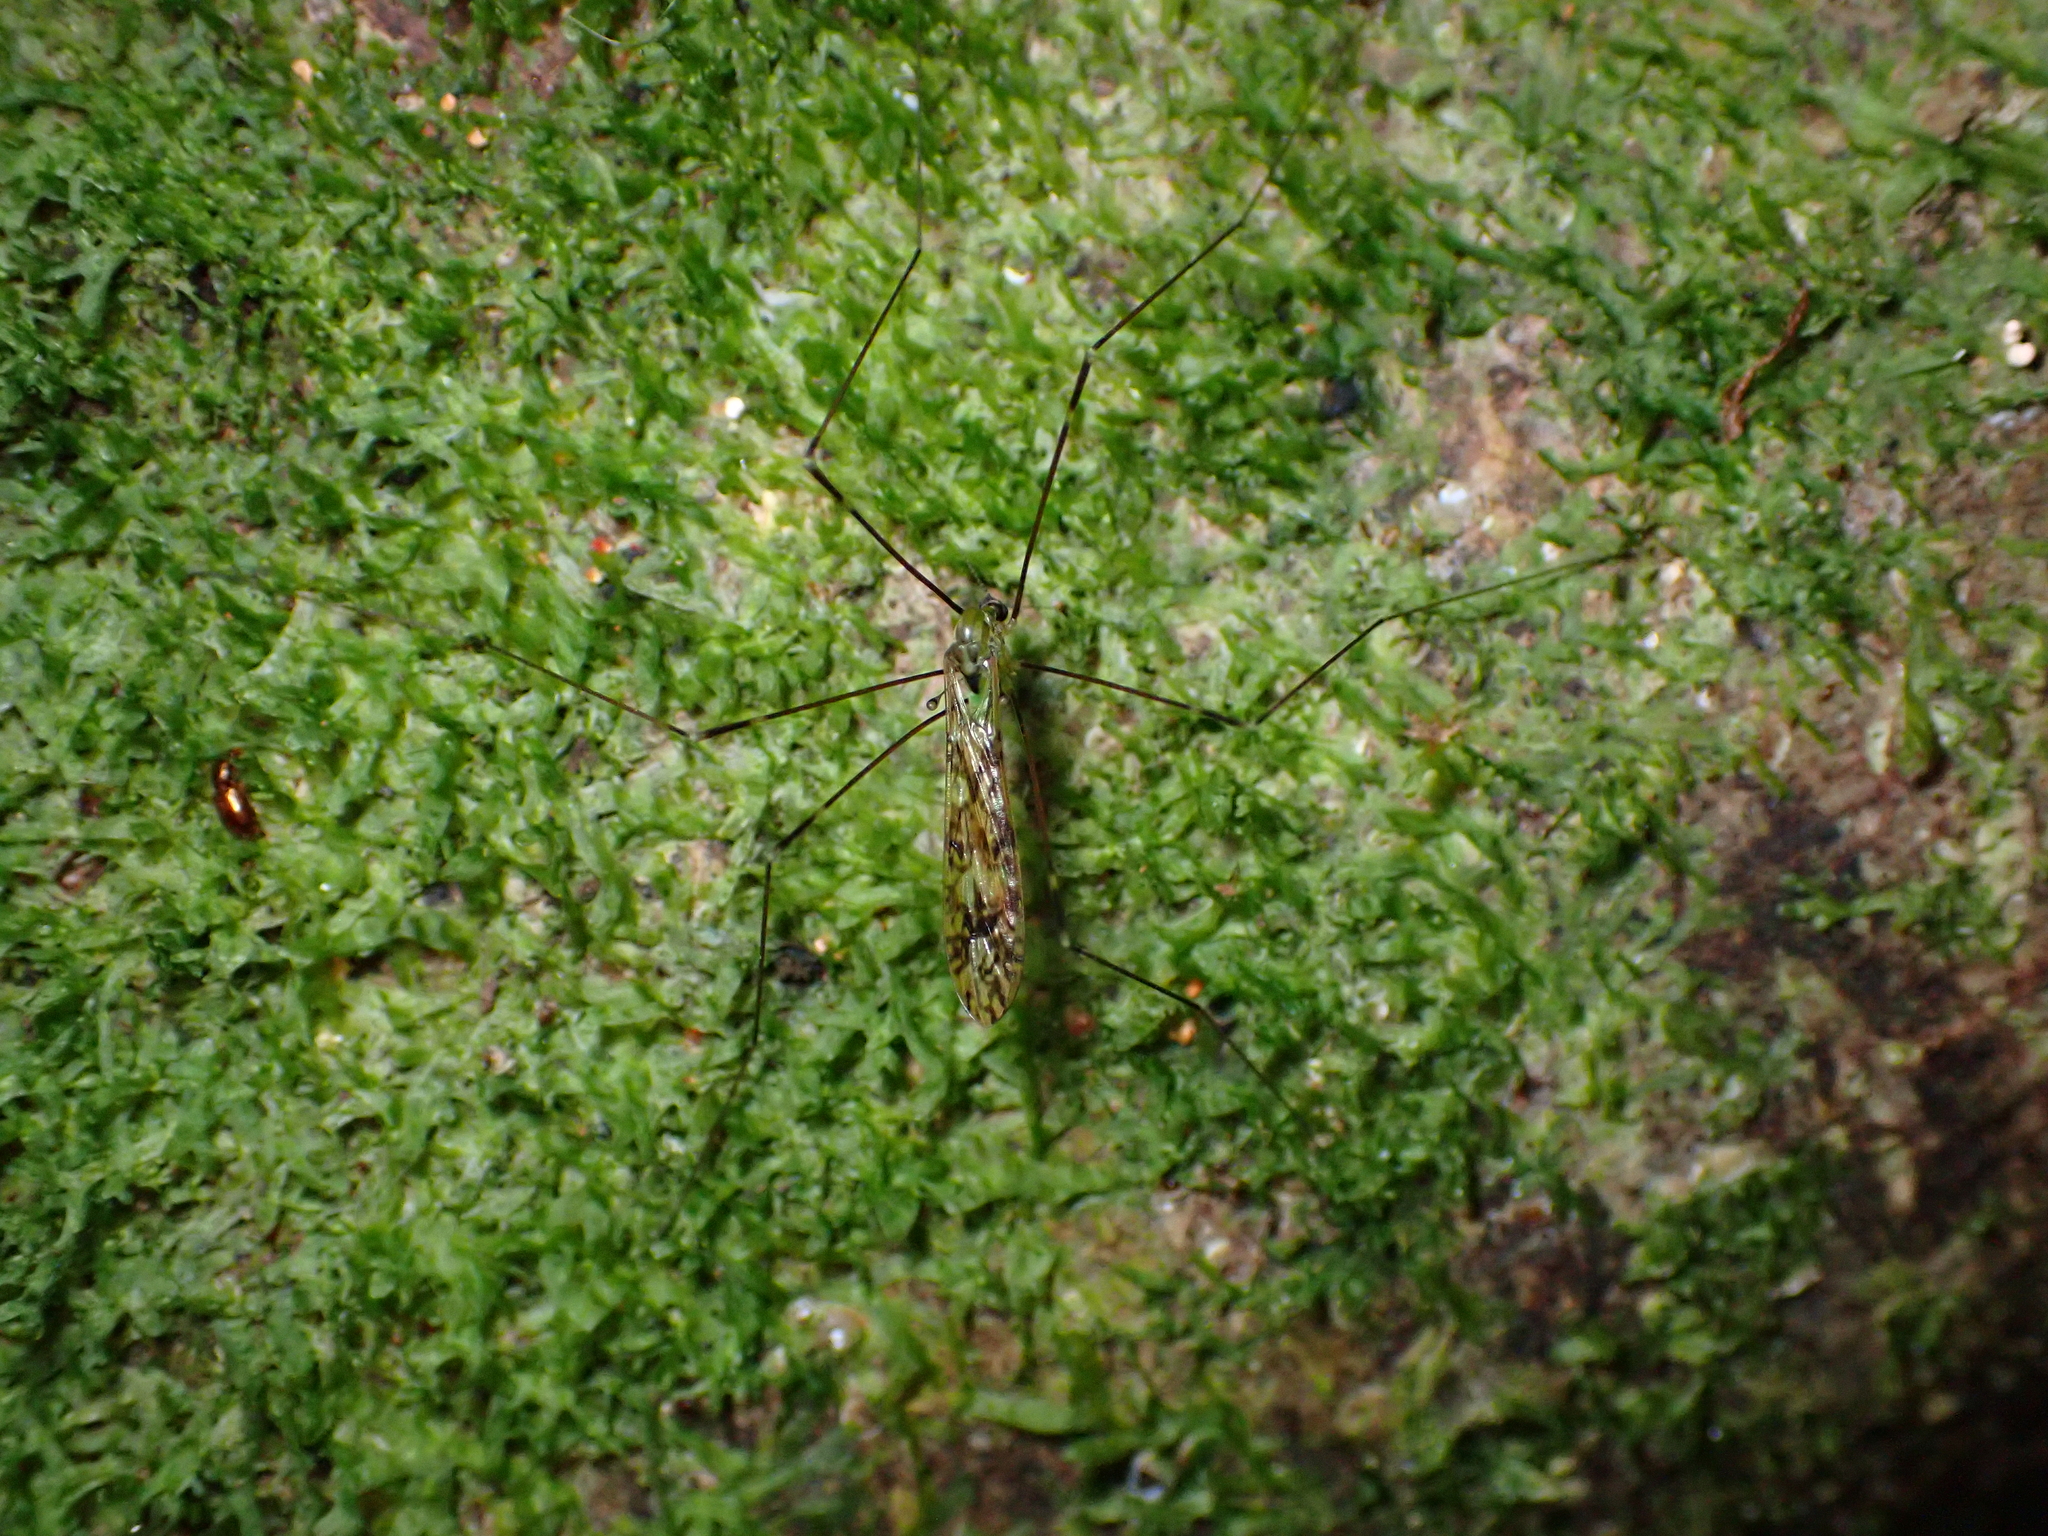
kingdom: Animalia
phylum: Arthropoda
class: Insecta
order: Diptera
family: Limoniidae
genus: Discobola
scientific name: Discobola tessellata
